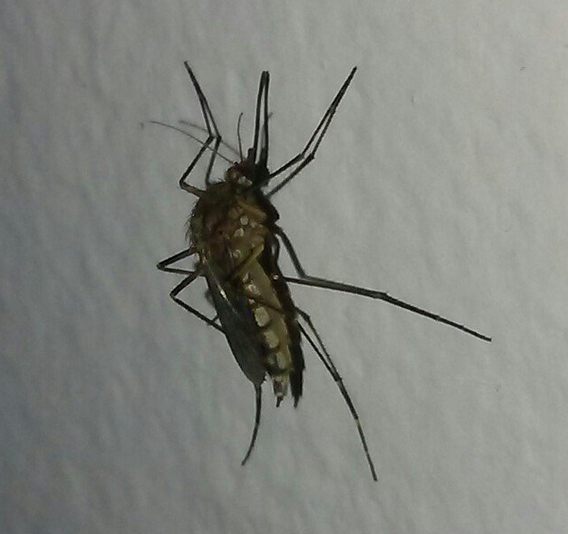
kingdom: Animalia
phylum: Arthropoda
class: Insecta
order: Diptera
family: Culicidae
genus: Aedes
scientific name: Aedes vexans
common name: Inland floodwater mosquito
